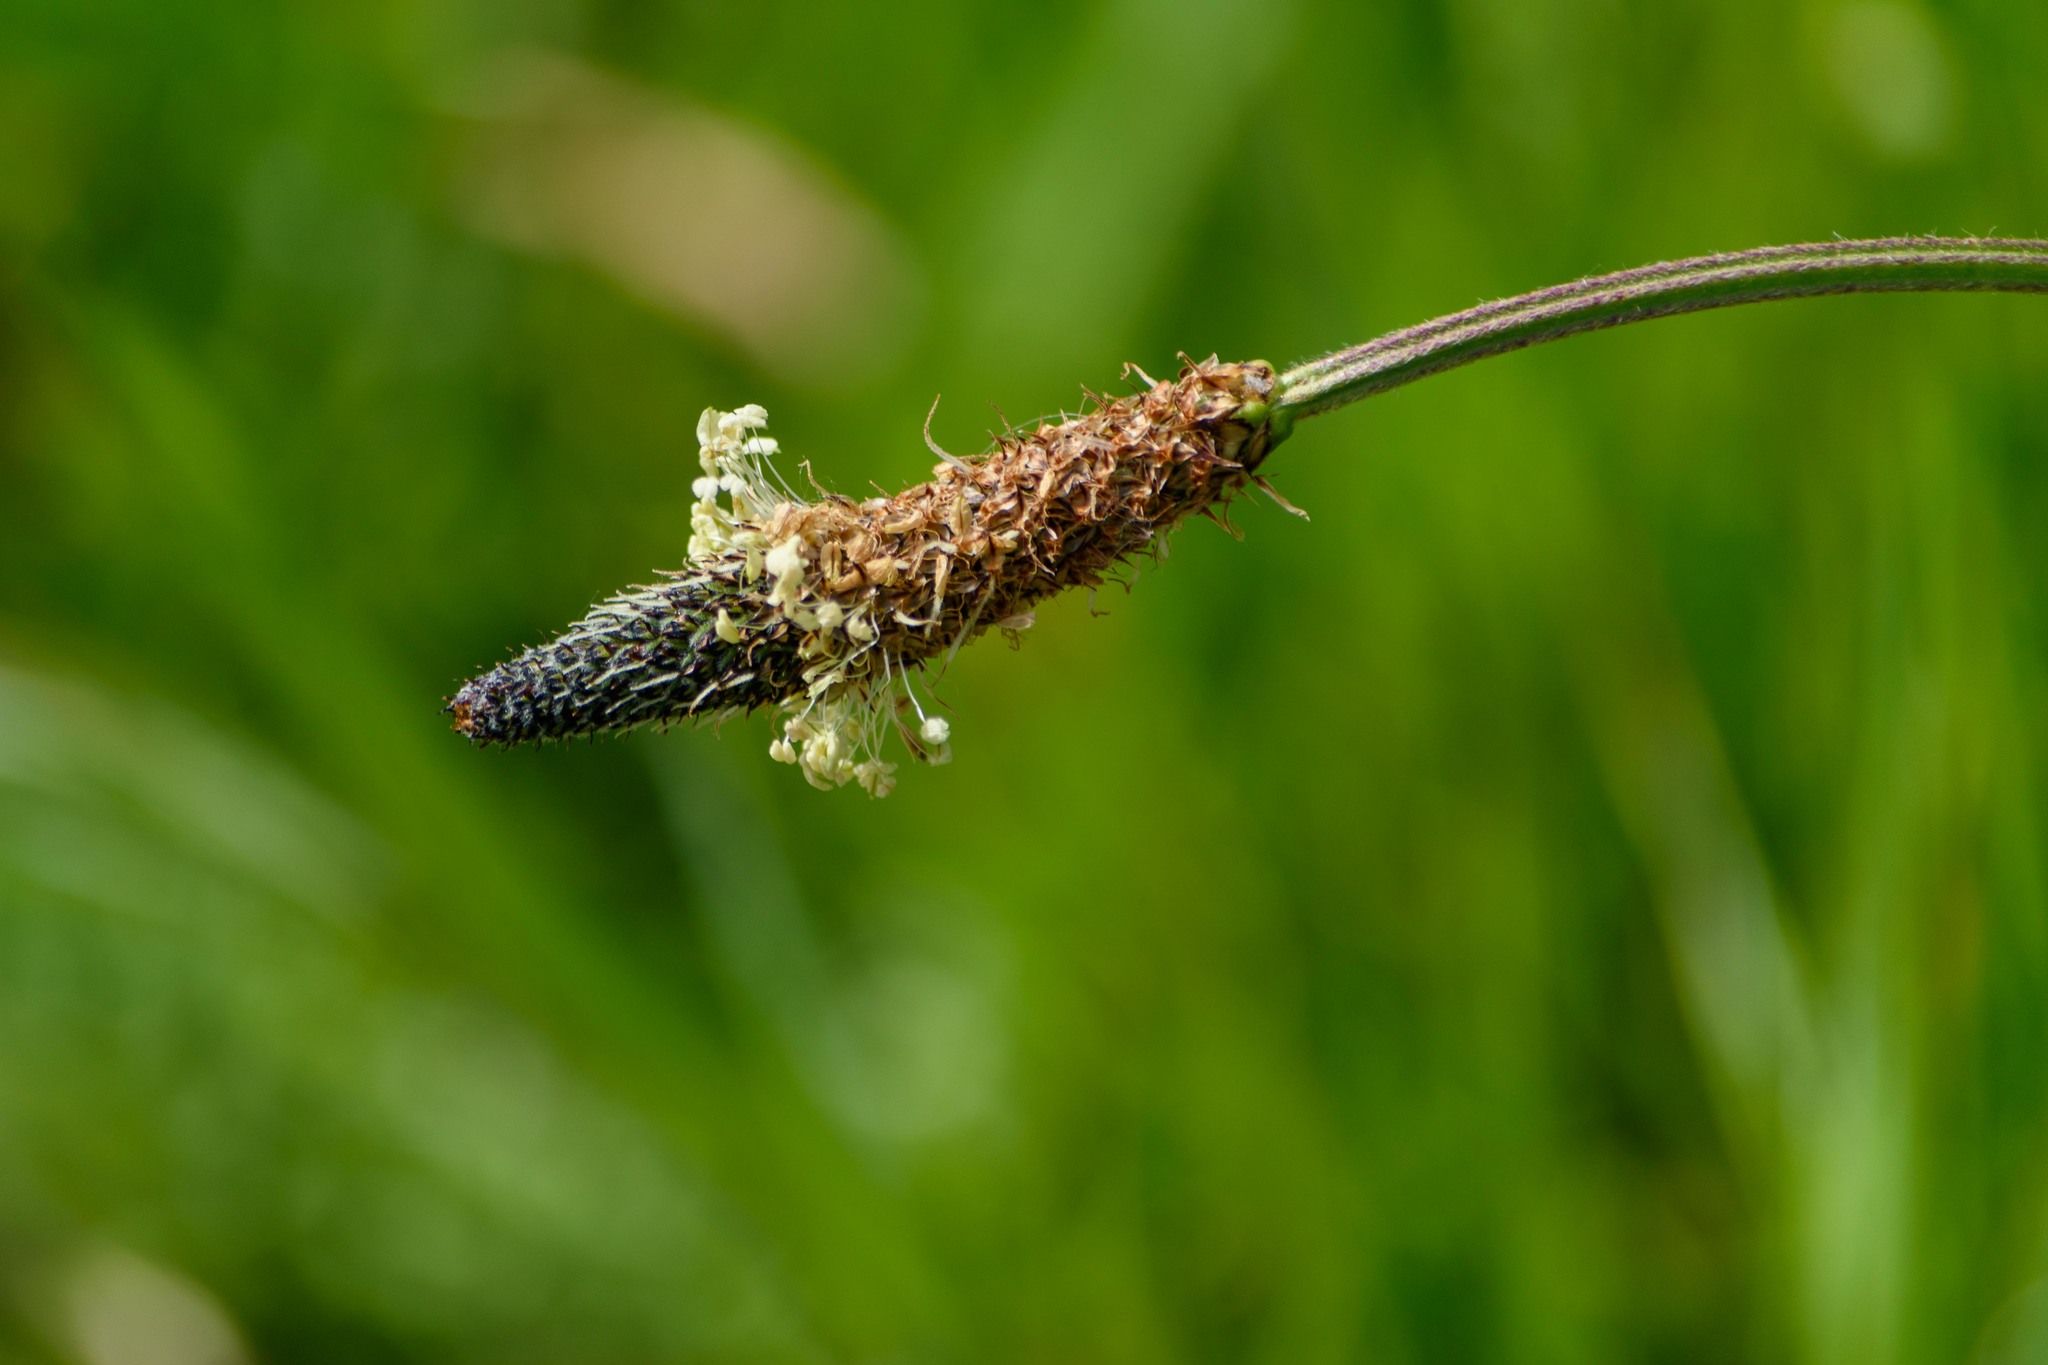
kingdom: Plantae
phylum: Tracheophyta
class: Magnoliopsida
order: Lamiales
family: Plantaginaceae
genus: Plantago
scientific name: Plantago lanceolata
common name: Ribwort plantain
